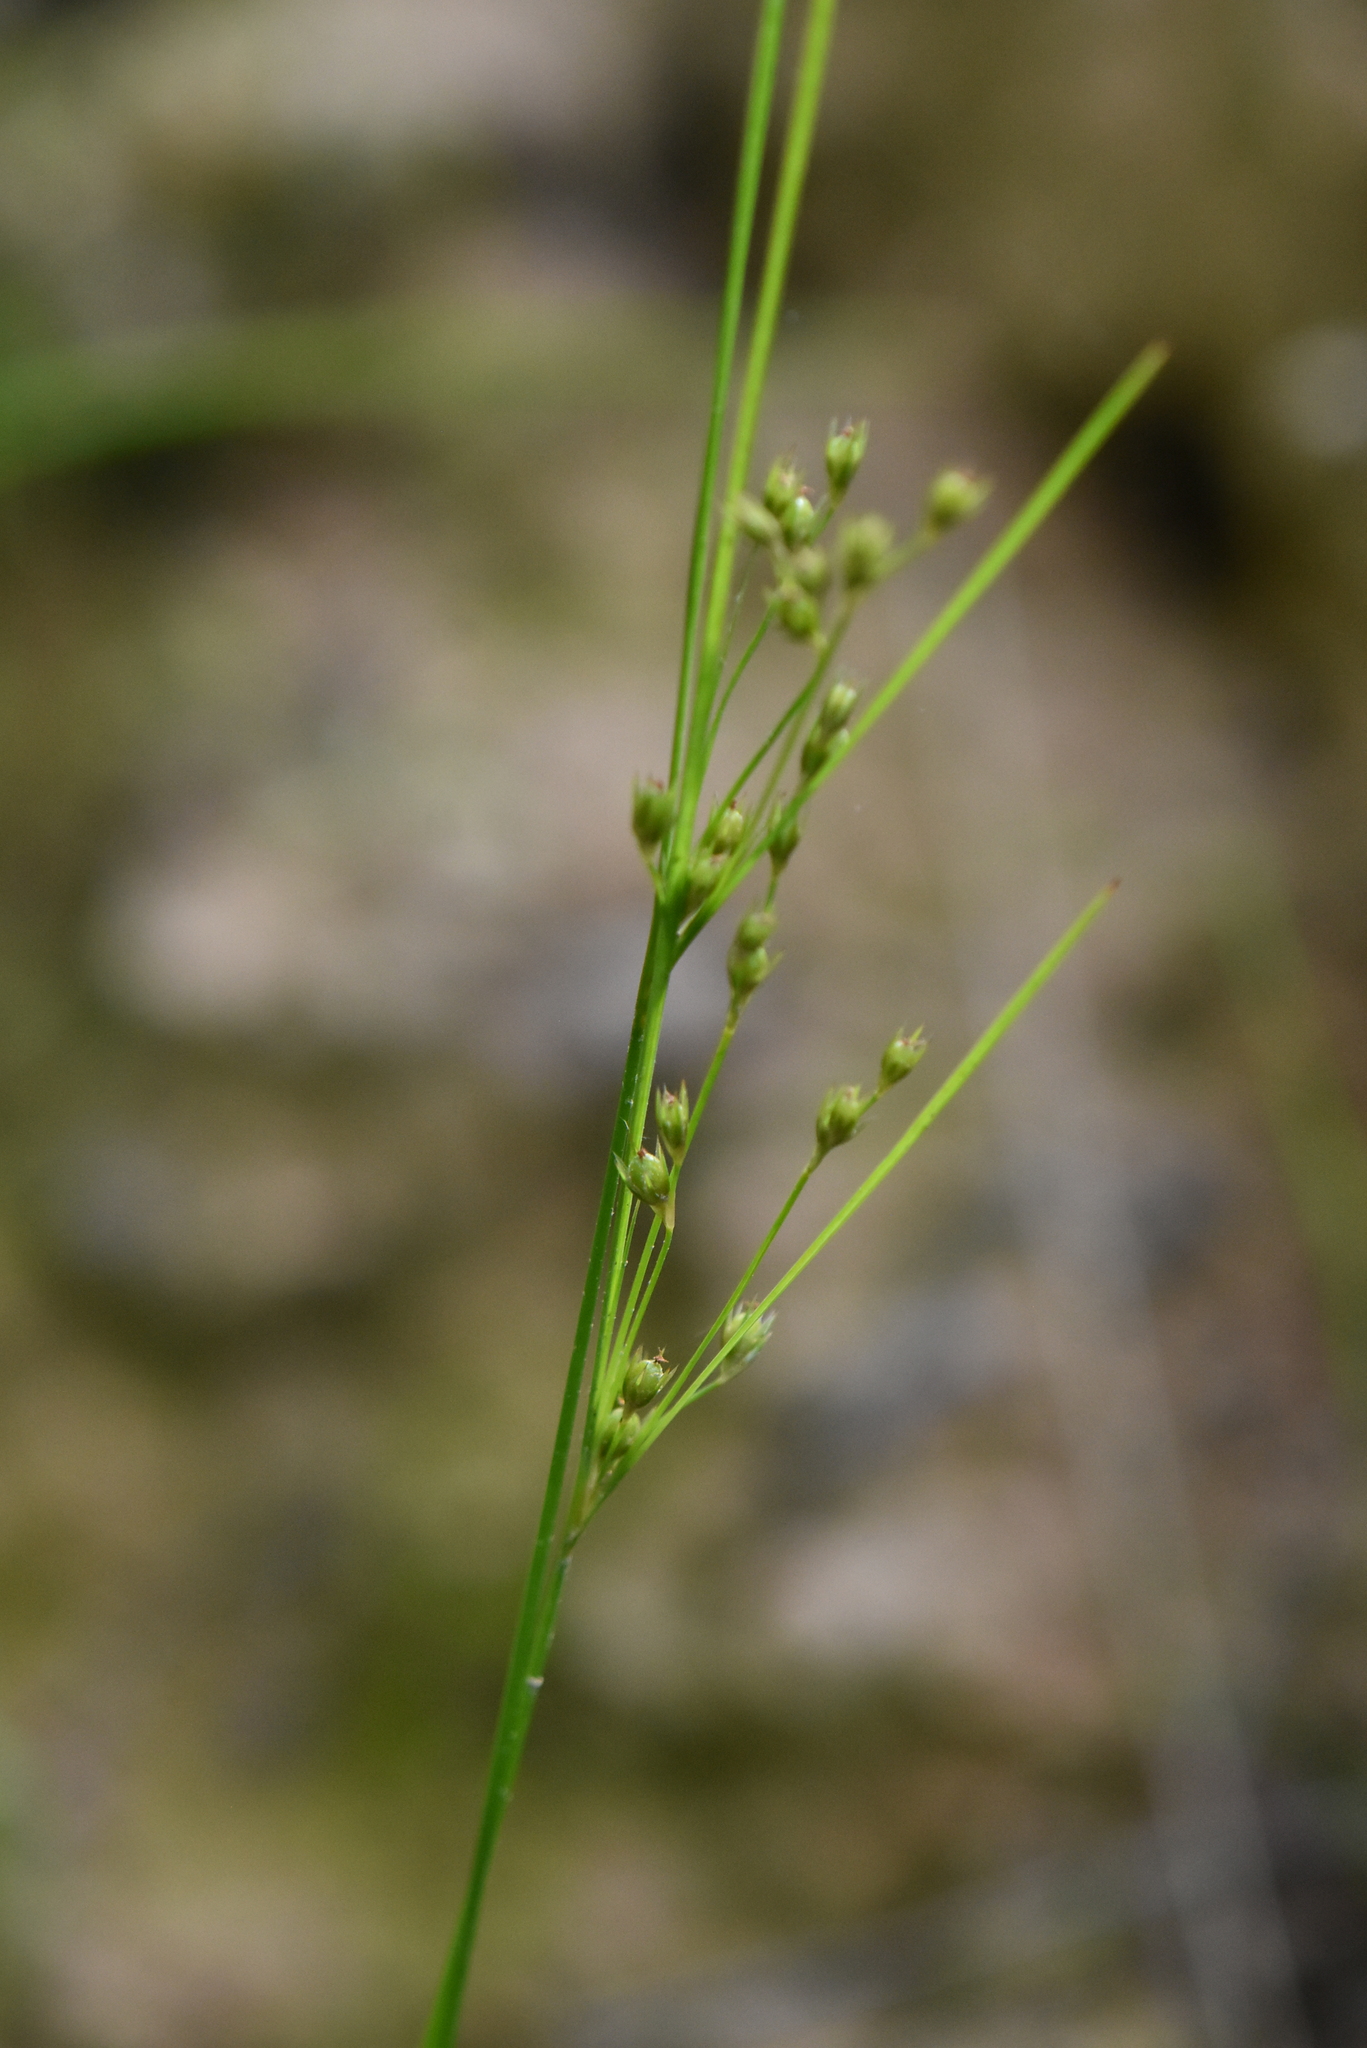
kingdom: Plantae
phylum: Tracheophyta
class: Liliopsida
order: Poales
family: Juncaceae
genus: Juncus
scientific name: Juncus tenuis
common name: Slender rush
